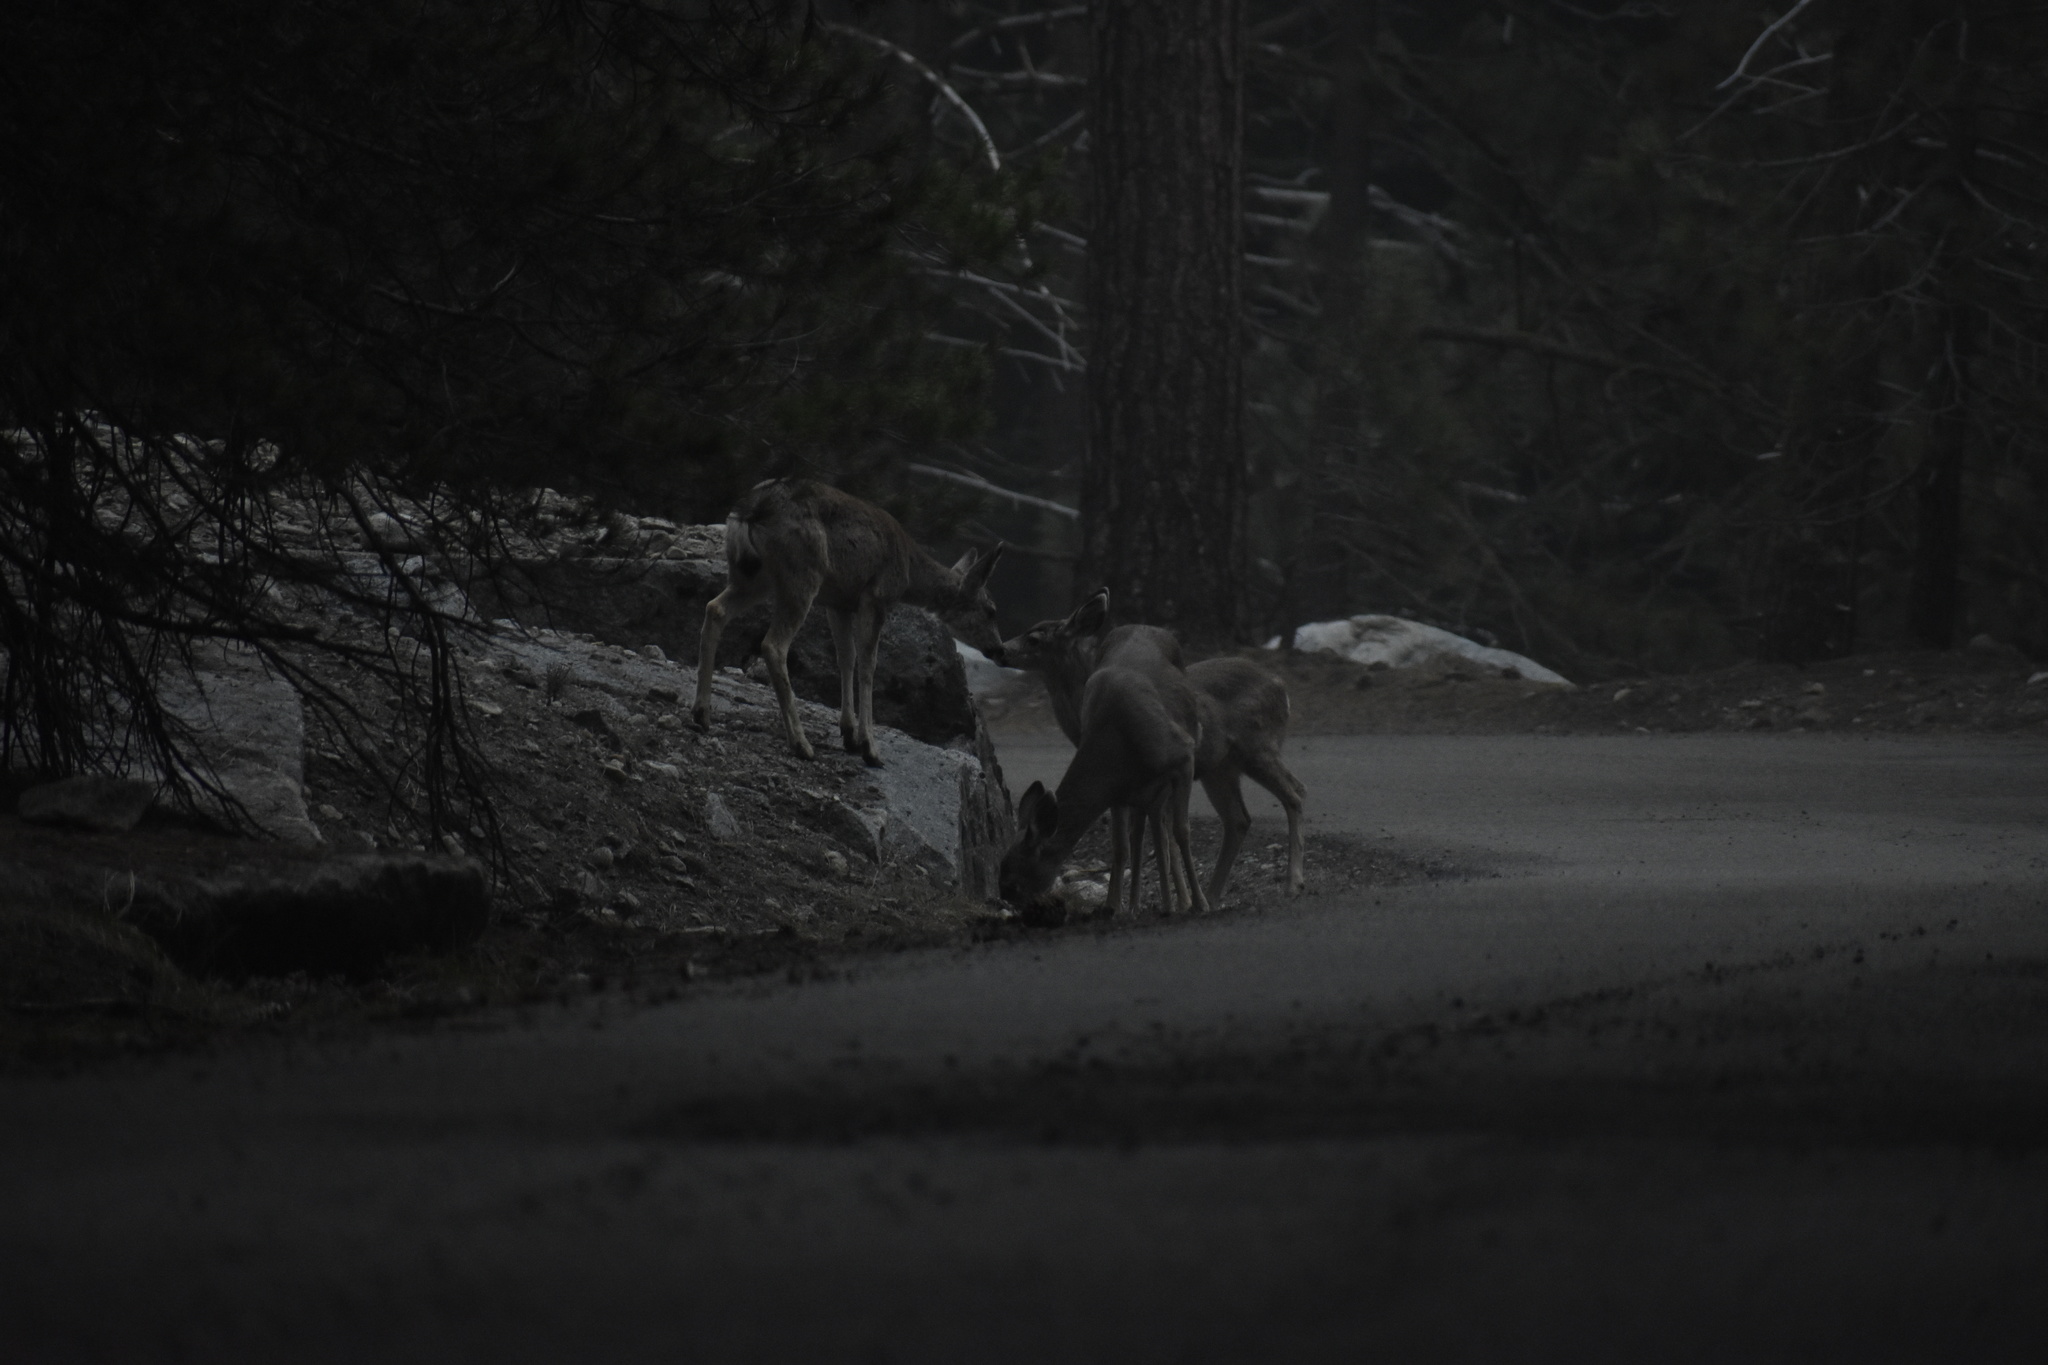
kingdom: Animalia
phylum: Chordata
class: Mammalia
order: Artiodactyla
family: Cervidae
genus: Odocoileus
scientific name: Odocoileus hemionus
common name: Mule deer
